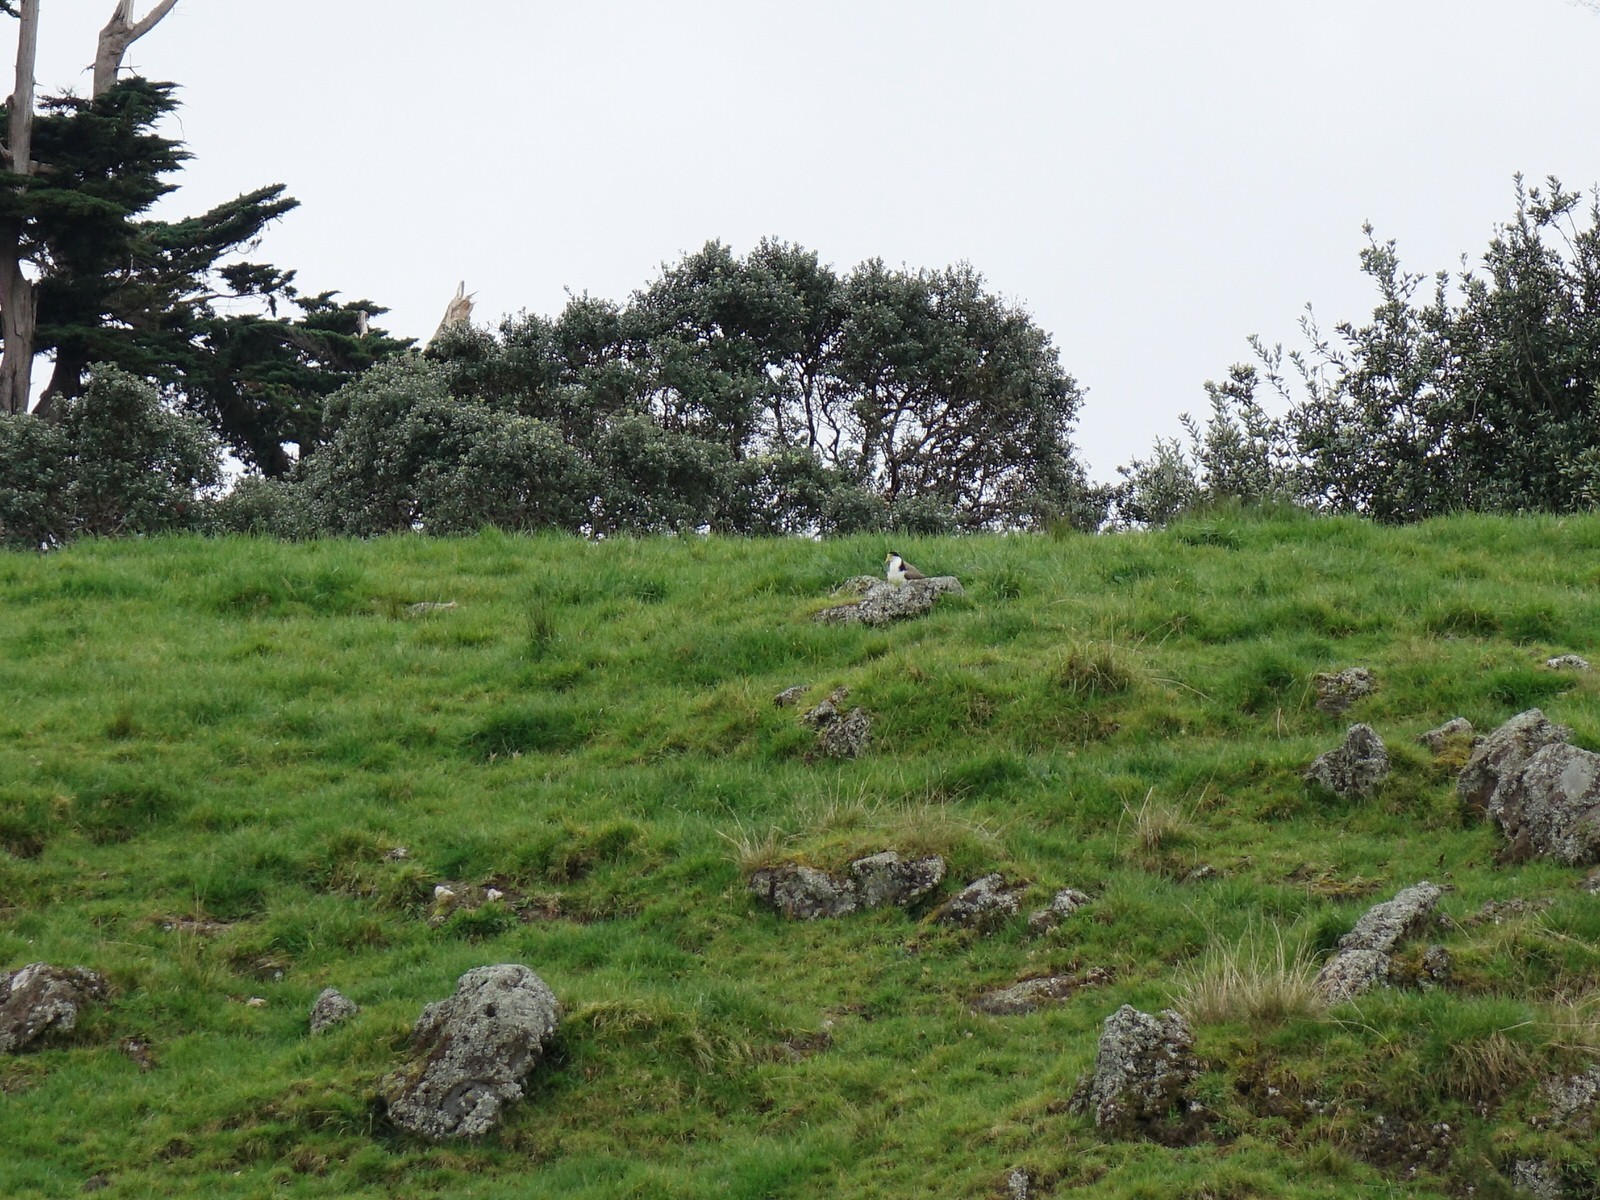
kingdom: Animalia
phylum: Chordata
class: Aves
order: Charadriiformes
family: Charadriidae
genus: Vanellus
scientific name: Vanellus miles
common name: Masked lapwing
